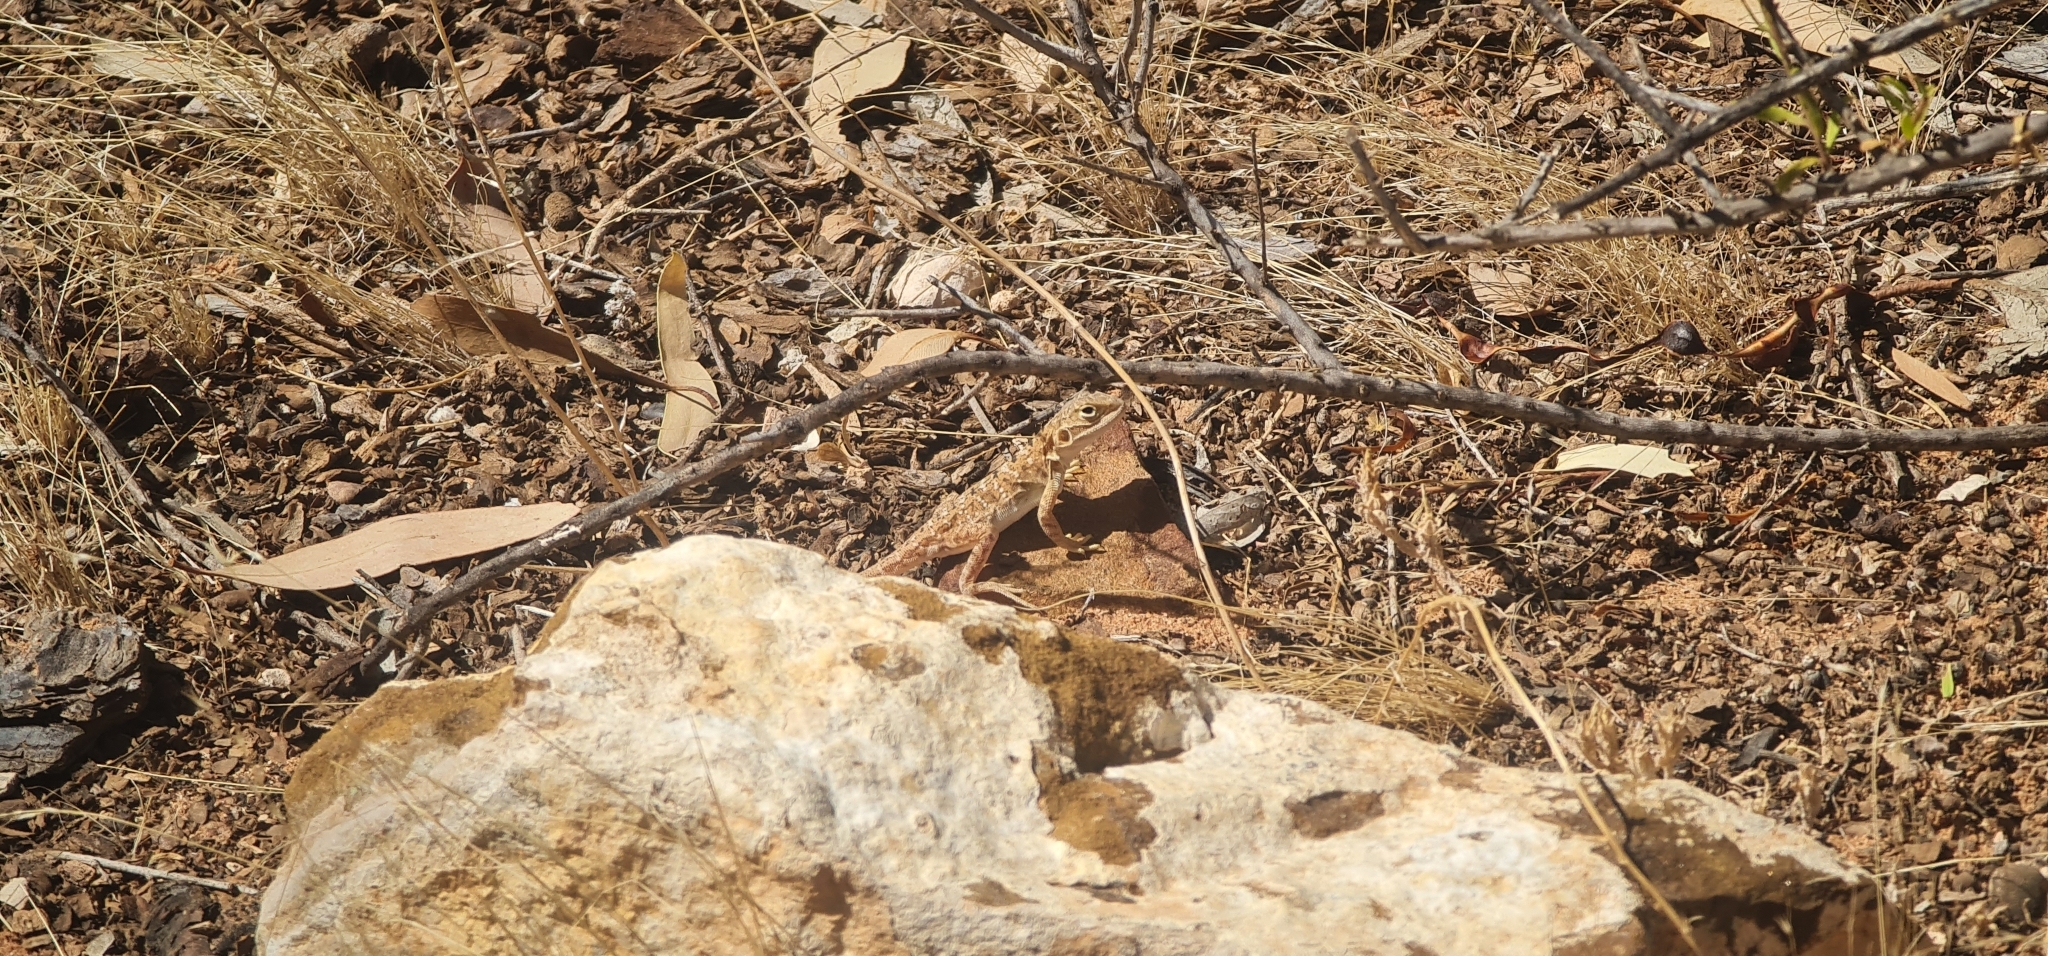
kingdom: Animalia
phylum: Chordata
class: Squamata
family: Agamidae
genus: Ctenophorus
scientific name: Ctenophorus pictus
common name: Painted dragon
